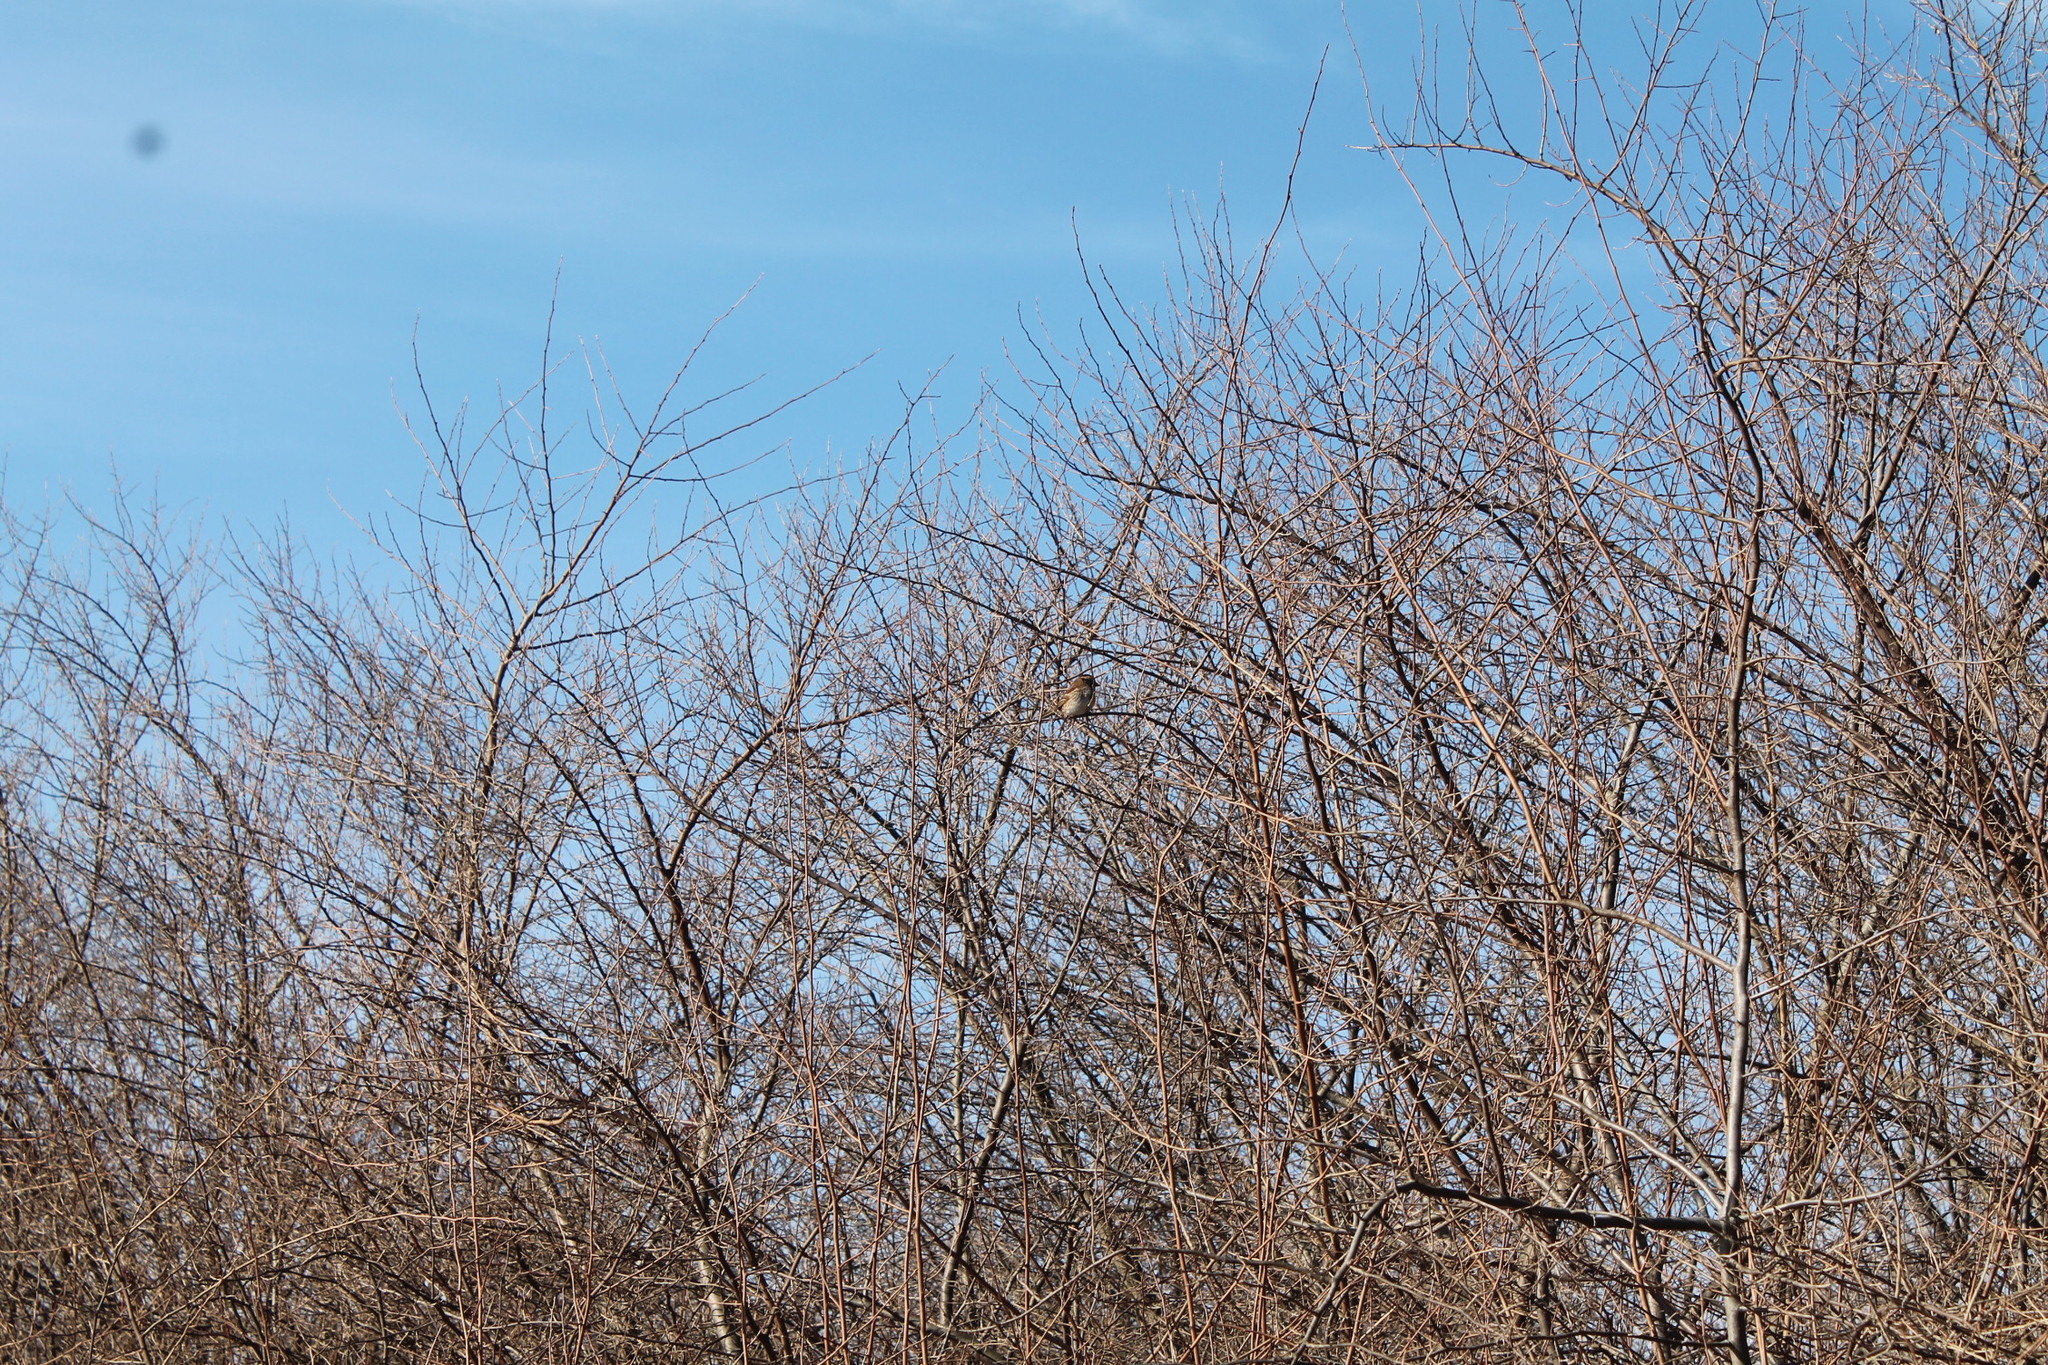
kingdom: Animalia
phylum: Chordata
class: Aves
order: Passeriformes
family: Passerellidae
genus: Zonotrichia
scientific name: Zonotrichia albicollis
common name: White-throated sparrow
